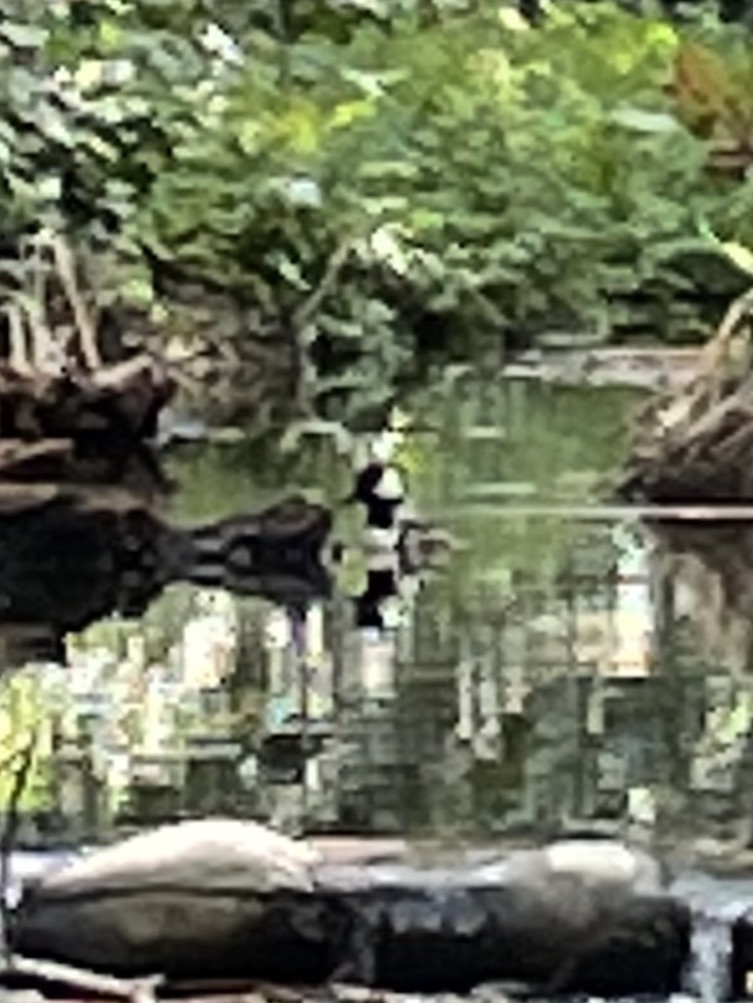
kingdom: Animalia
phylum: Chordata
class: Aves
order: Anseriformes
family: Anatidae
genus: Lophodytes
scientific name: Lophodytes cucullatus
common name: Hooded merganser
